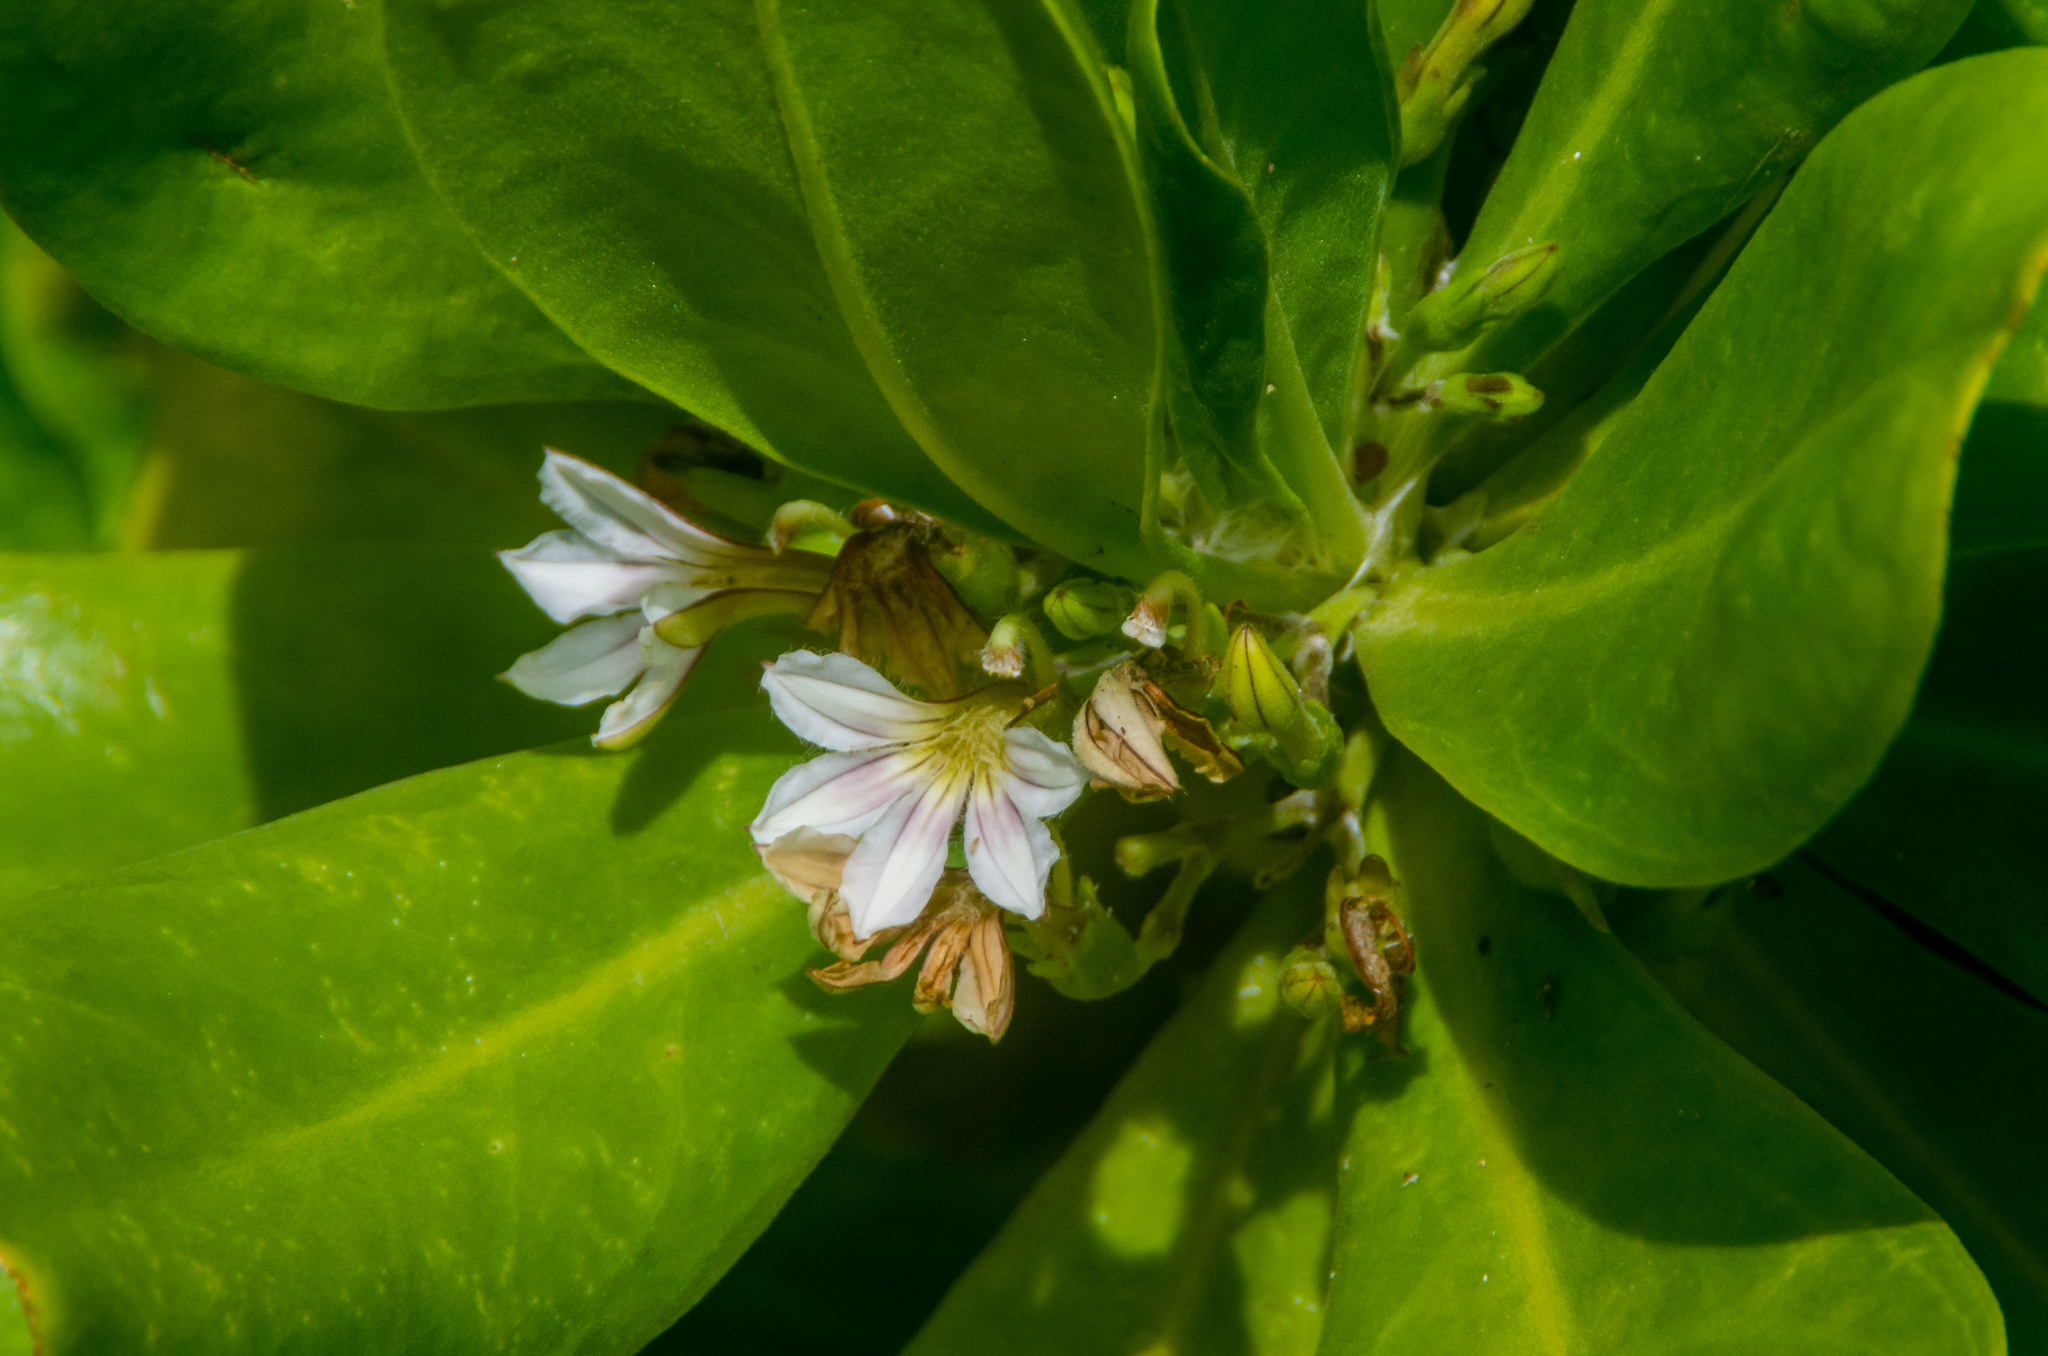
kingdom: Plantae
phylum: Tracheophyta
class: Magnoliopsida
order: Asterales
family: Goodeniaceae
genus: Scaevola
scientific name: Scaevola taccada
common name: Sea lettucetree
